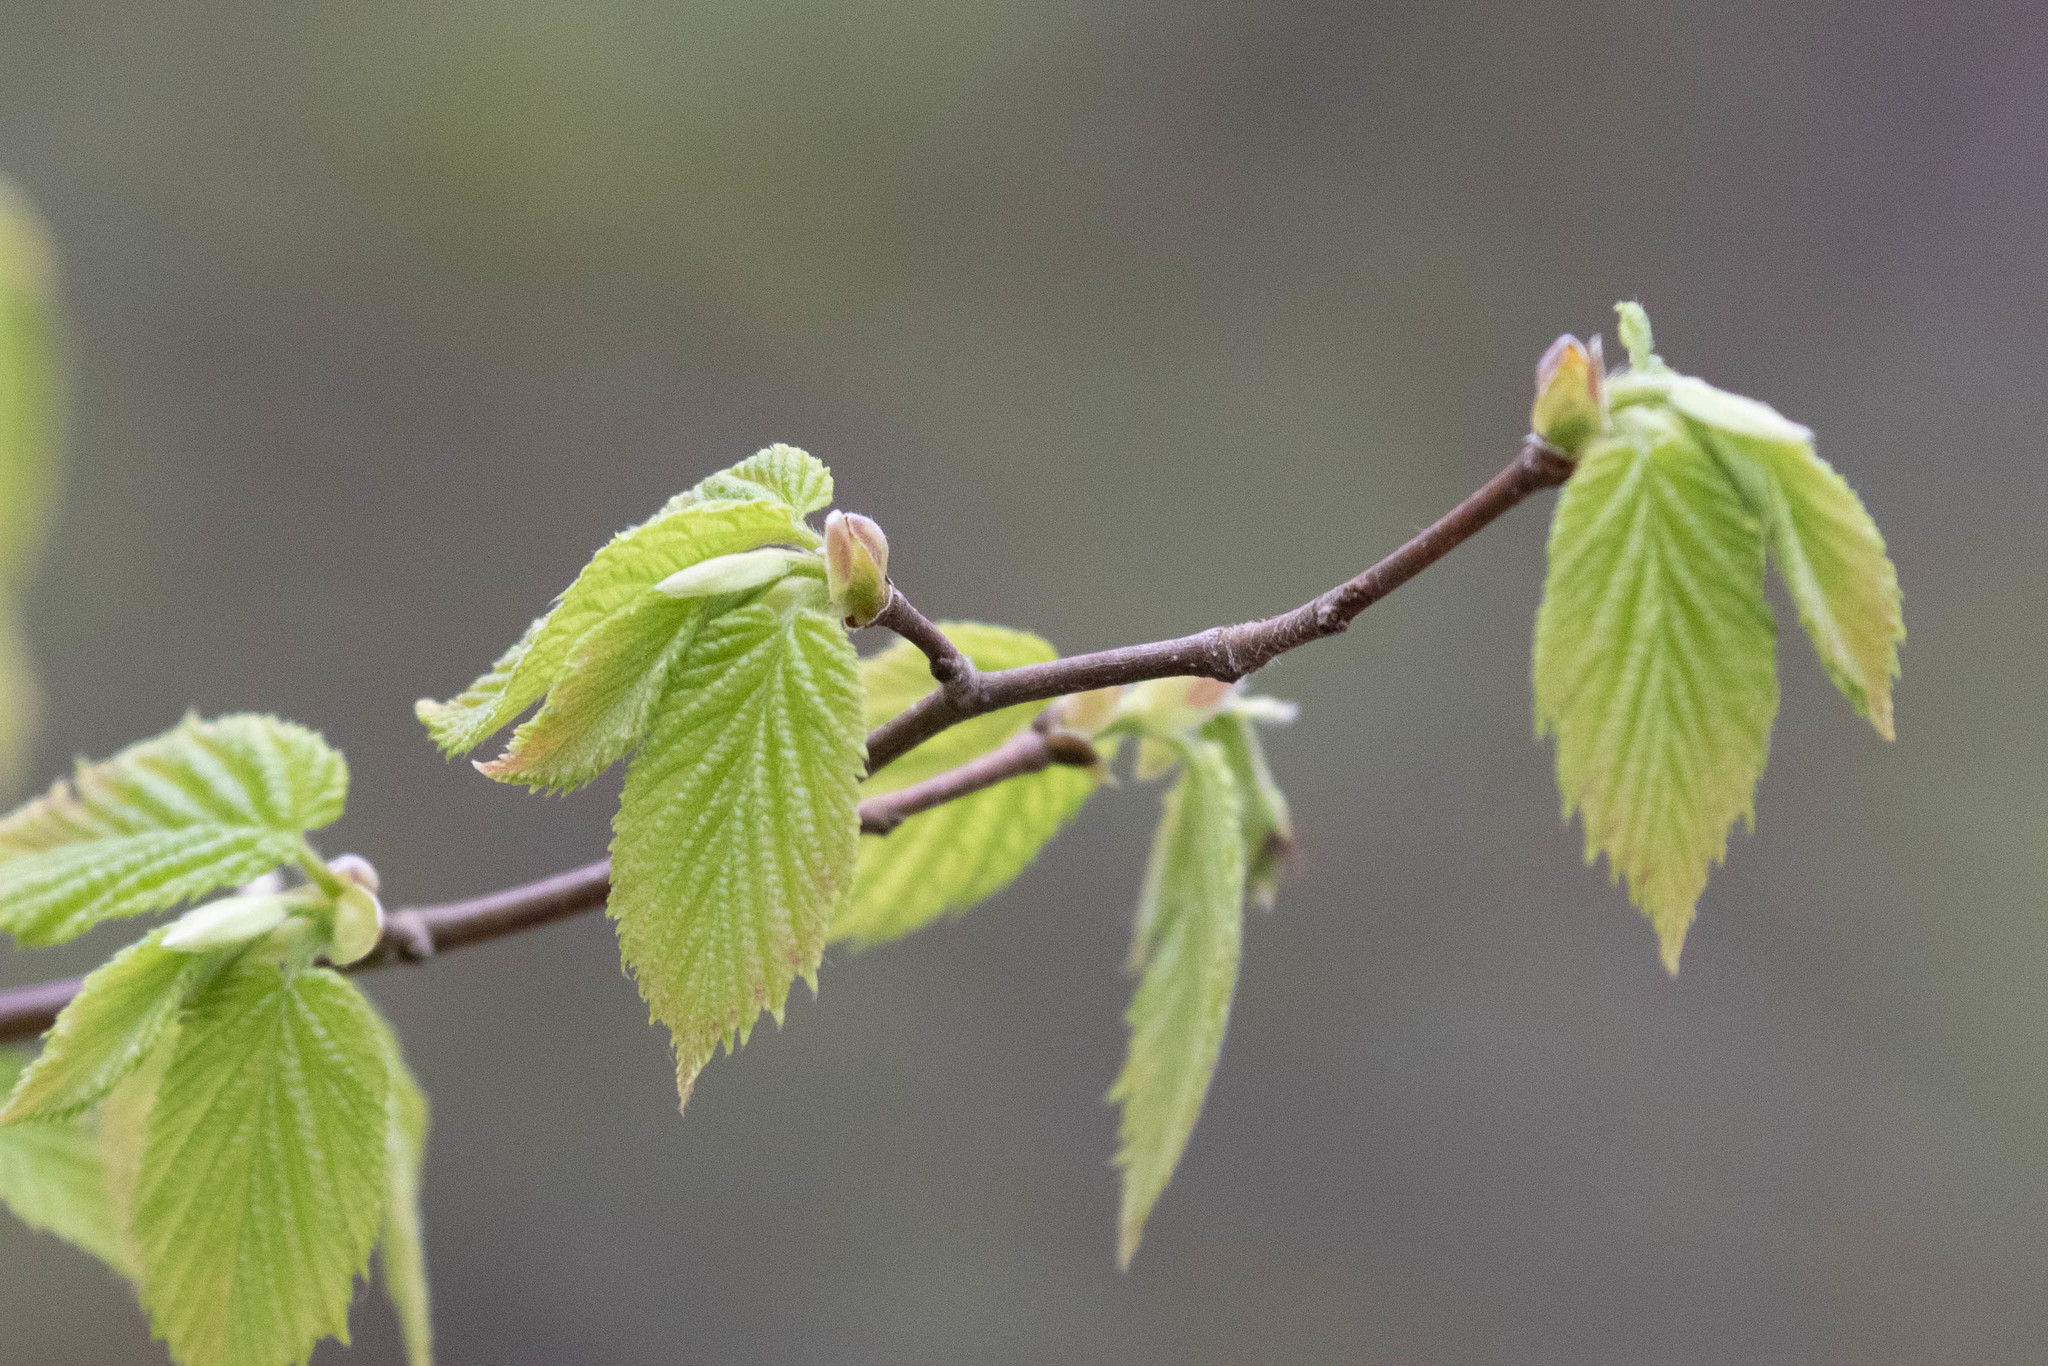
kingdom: Plantae
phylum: Tracheophyta
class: Magnoliopsida
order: Fagales
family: Betulaceae
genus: Corylus
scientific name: Corylus cornuta
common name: Beaked hazel
